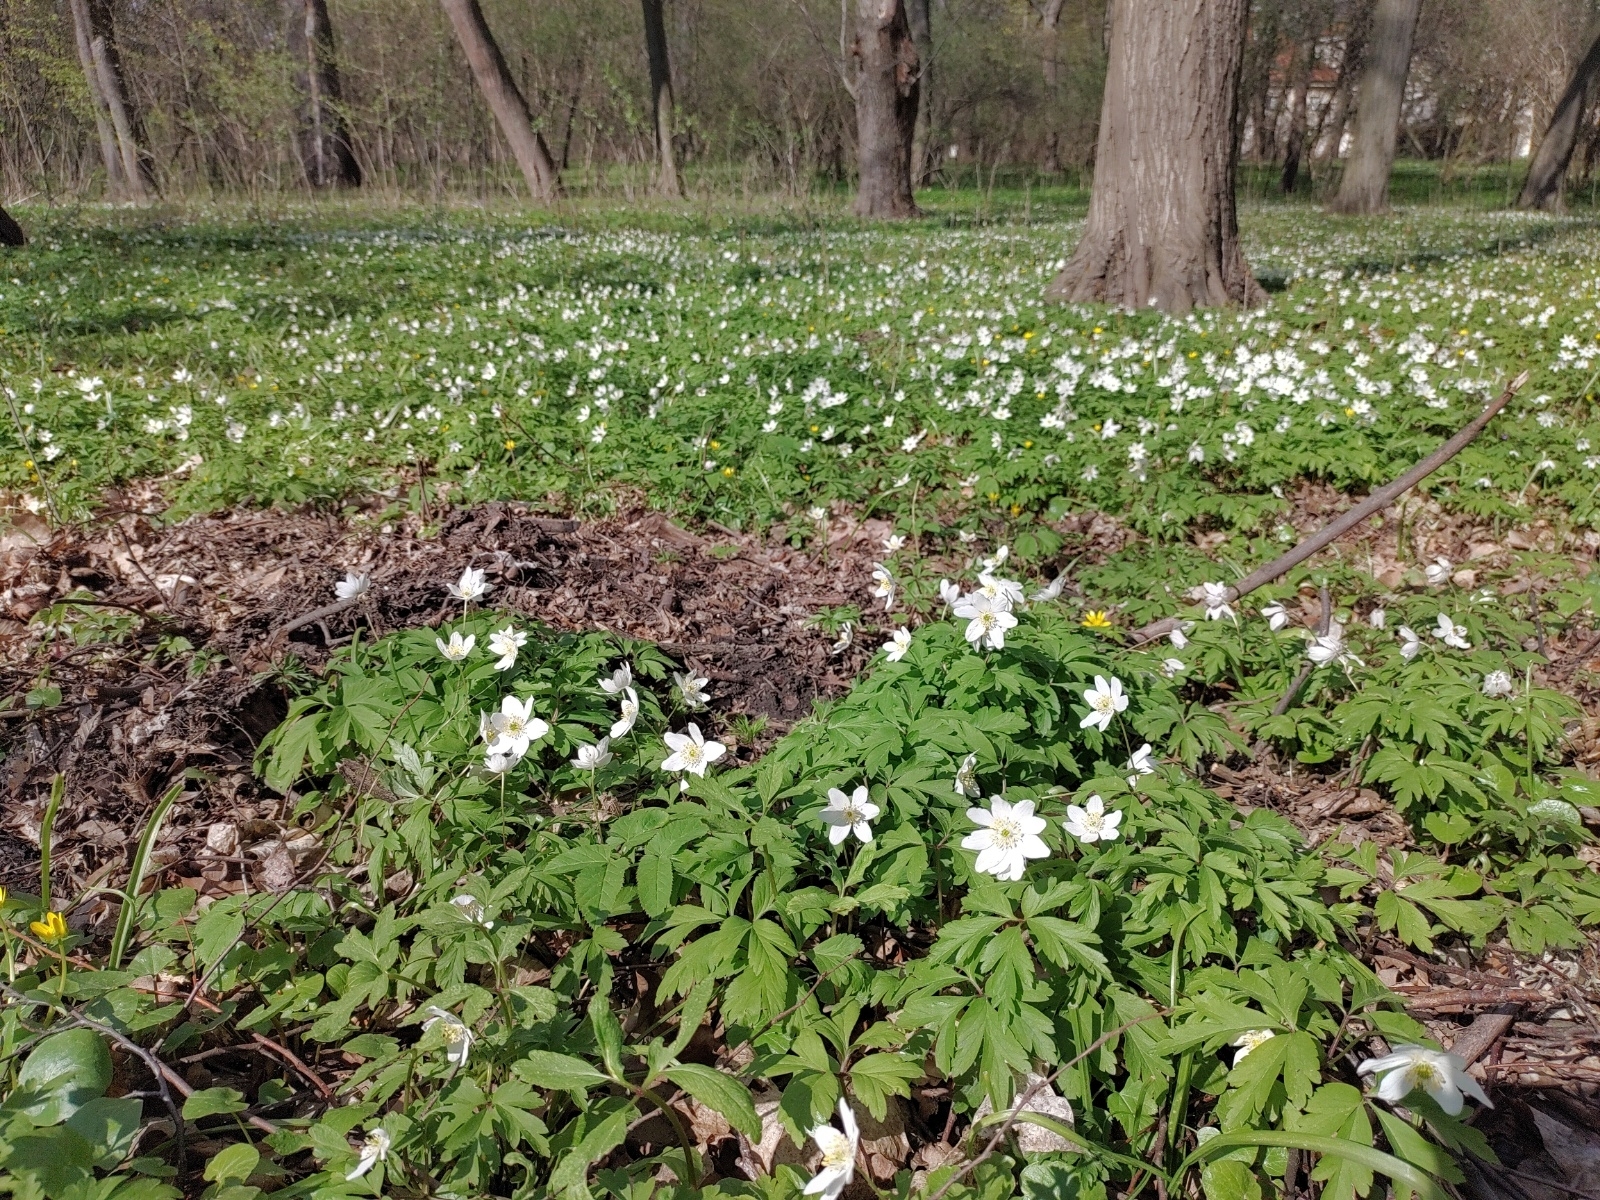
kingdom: Plantae
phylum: Tracheophyta
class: Magnoliopsida
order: Ranunculales
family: Ranunculaceae
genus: Anemone
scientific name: Anemone nemorosa
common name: Wood anemone
